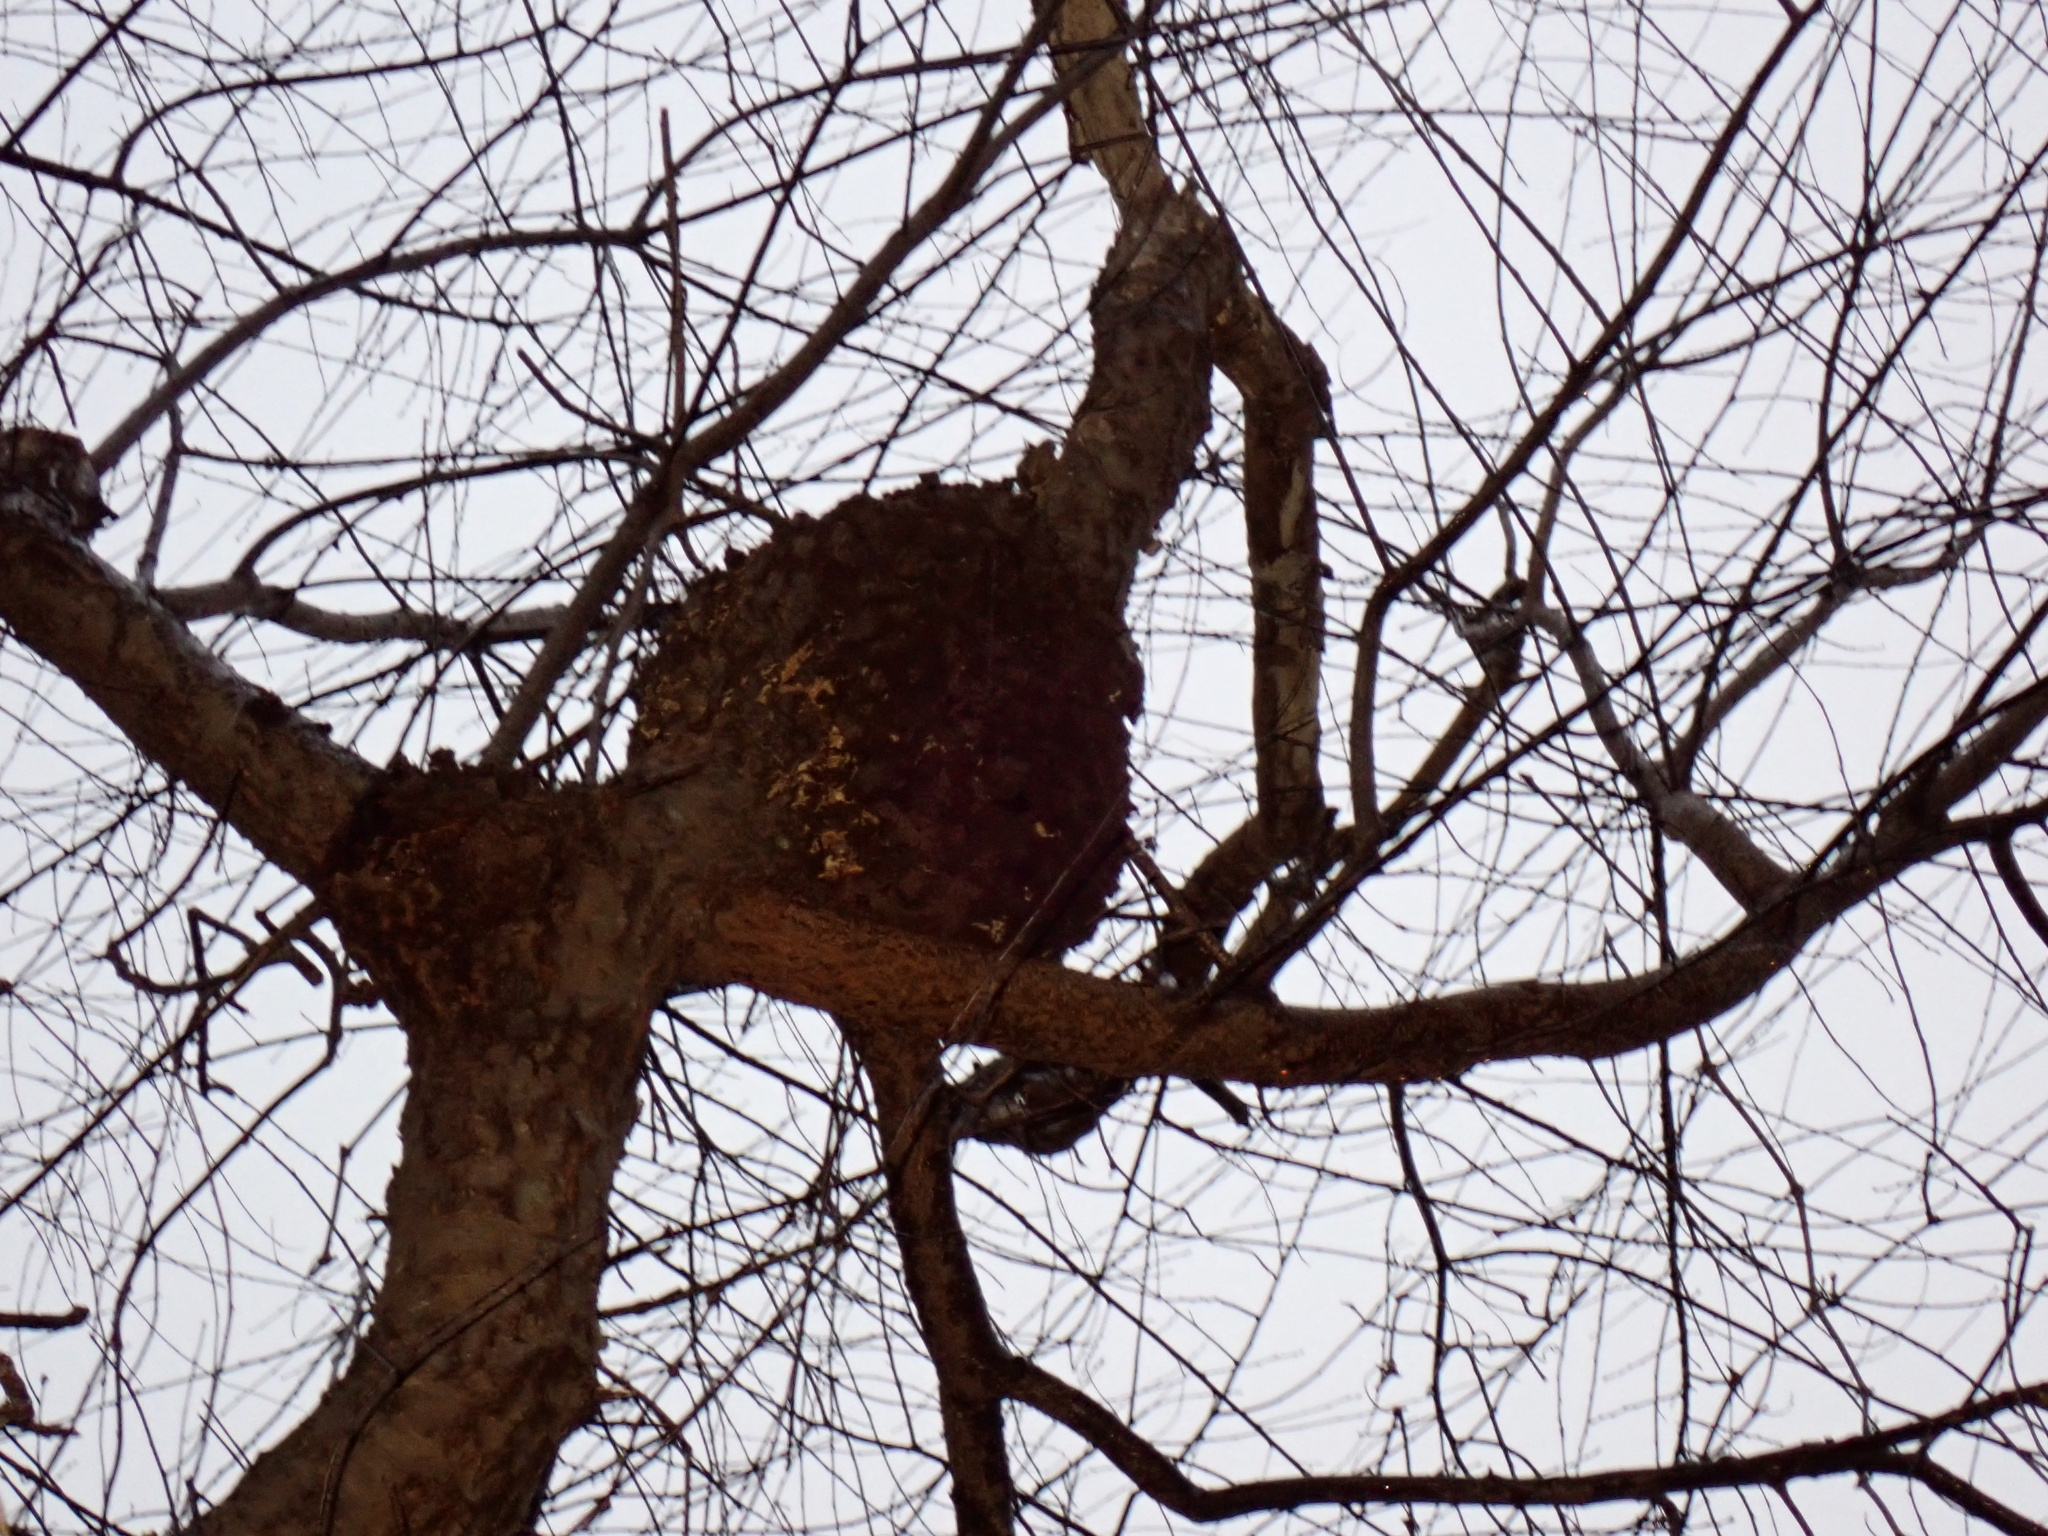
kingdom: Bacteria
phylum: Proteobacteria
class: Alphaproteobacteria
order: Rhizobiales
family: Rhizobiaceae
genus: Rhizobium
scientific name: Rhizobium Agrobacterium radiobacter
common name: Bacterial crown gall
